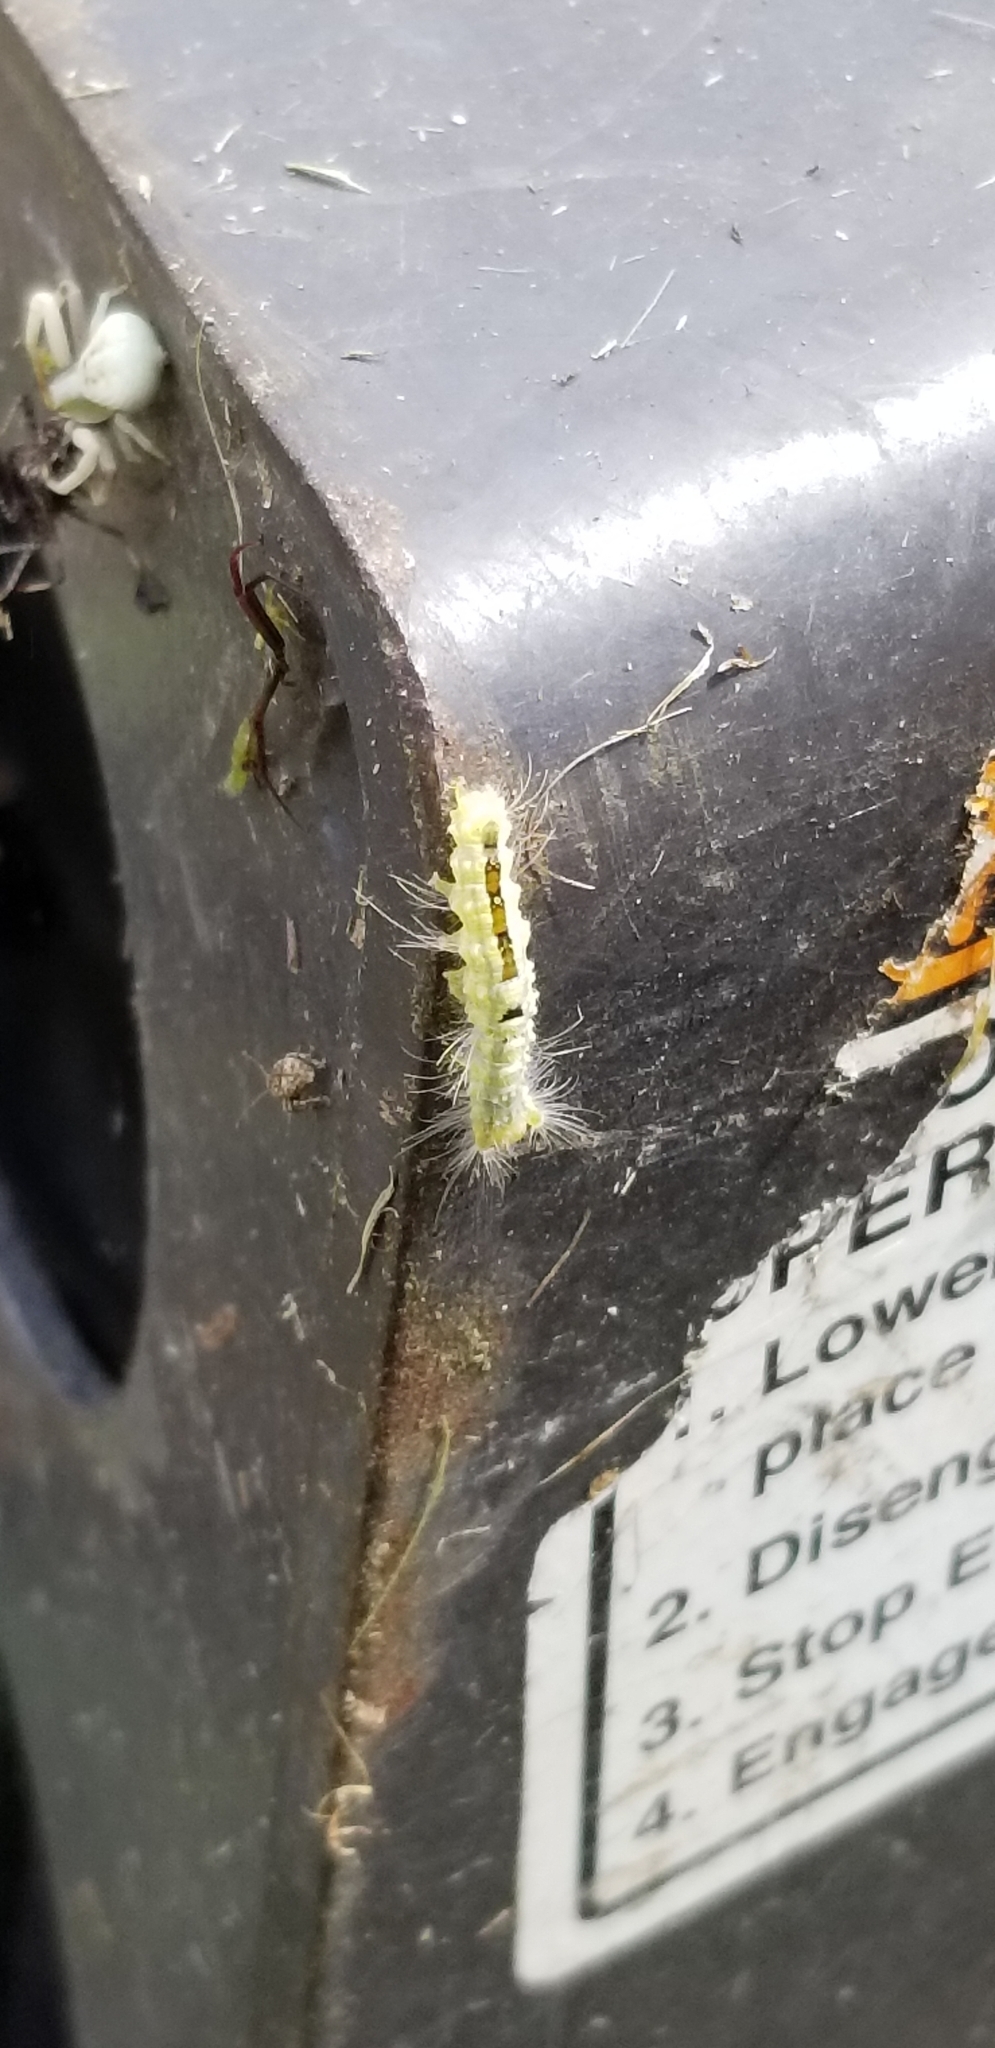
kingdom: Animalia
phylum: Arthropoda
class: Insecta
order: Lepidoptera
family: Erebidae
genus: Orgyia
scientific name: Orgyia definita
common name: Definite tussock moth
